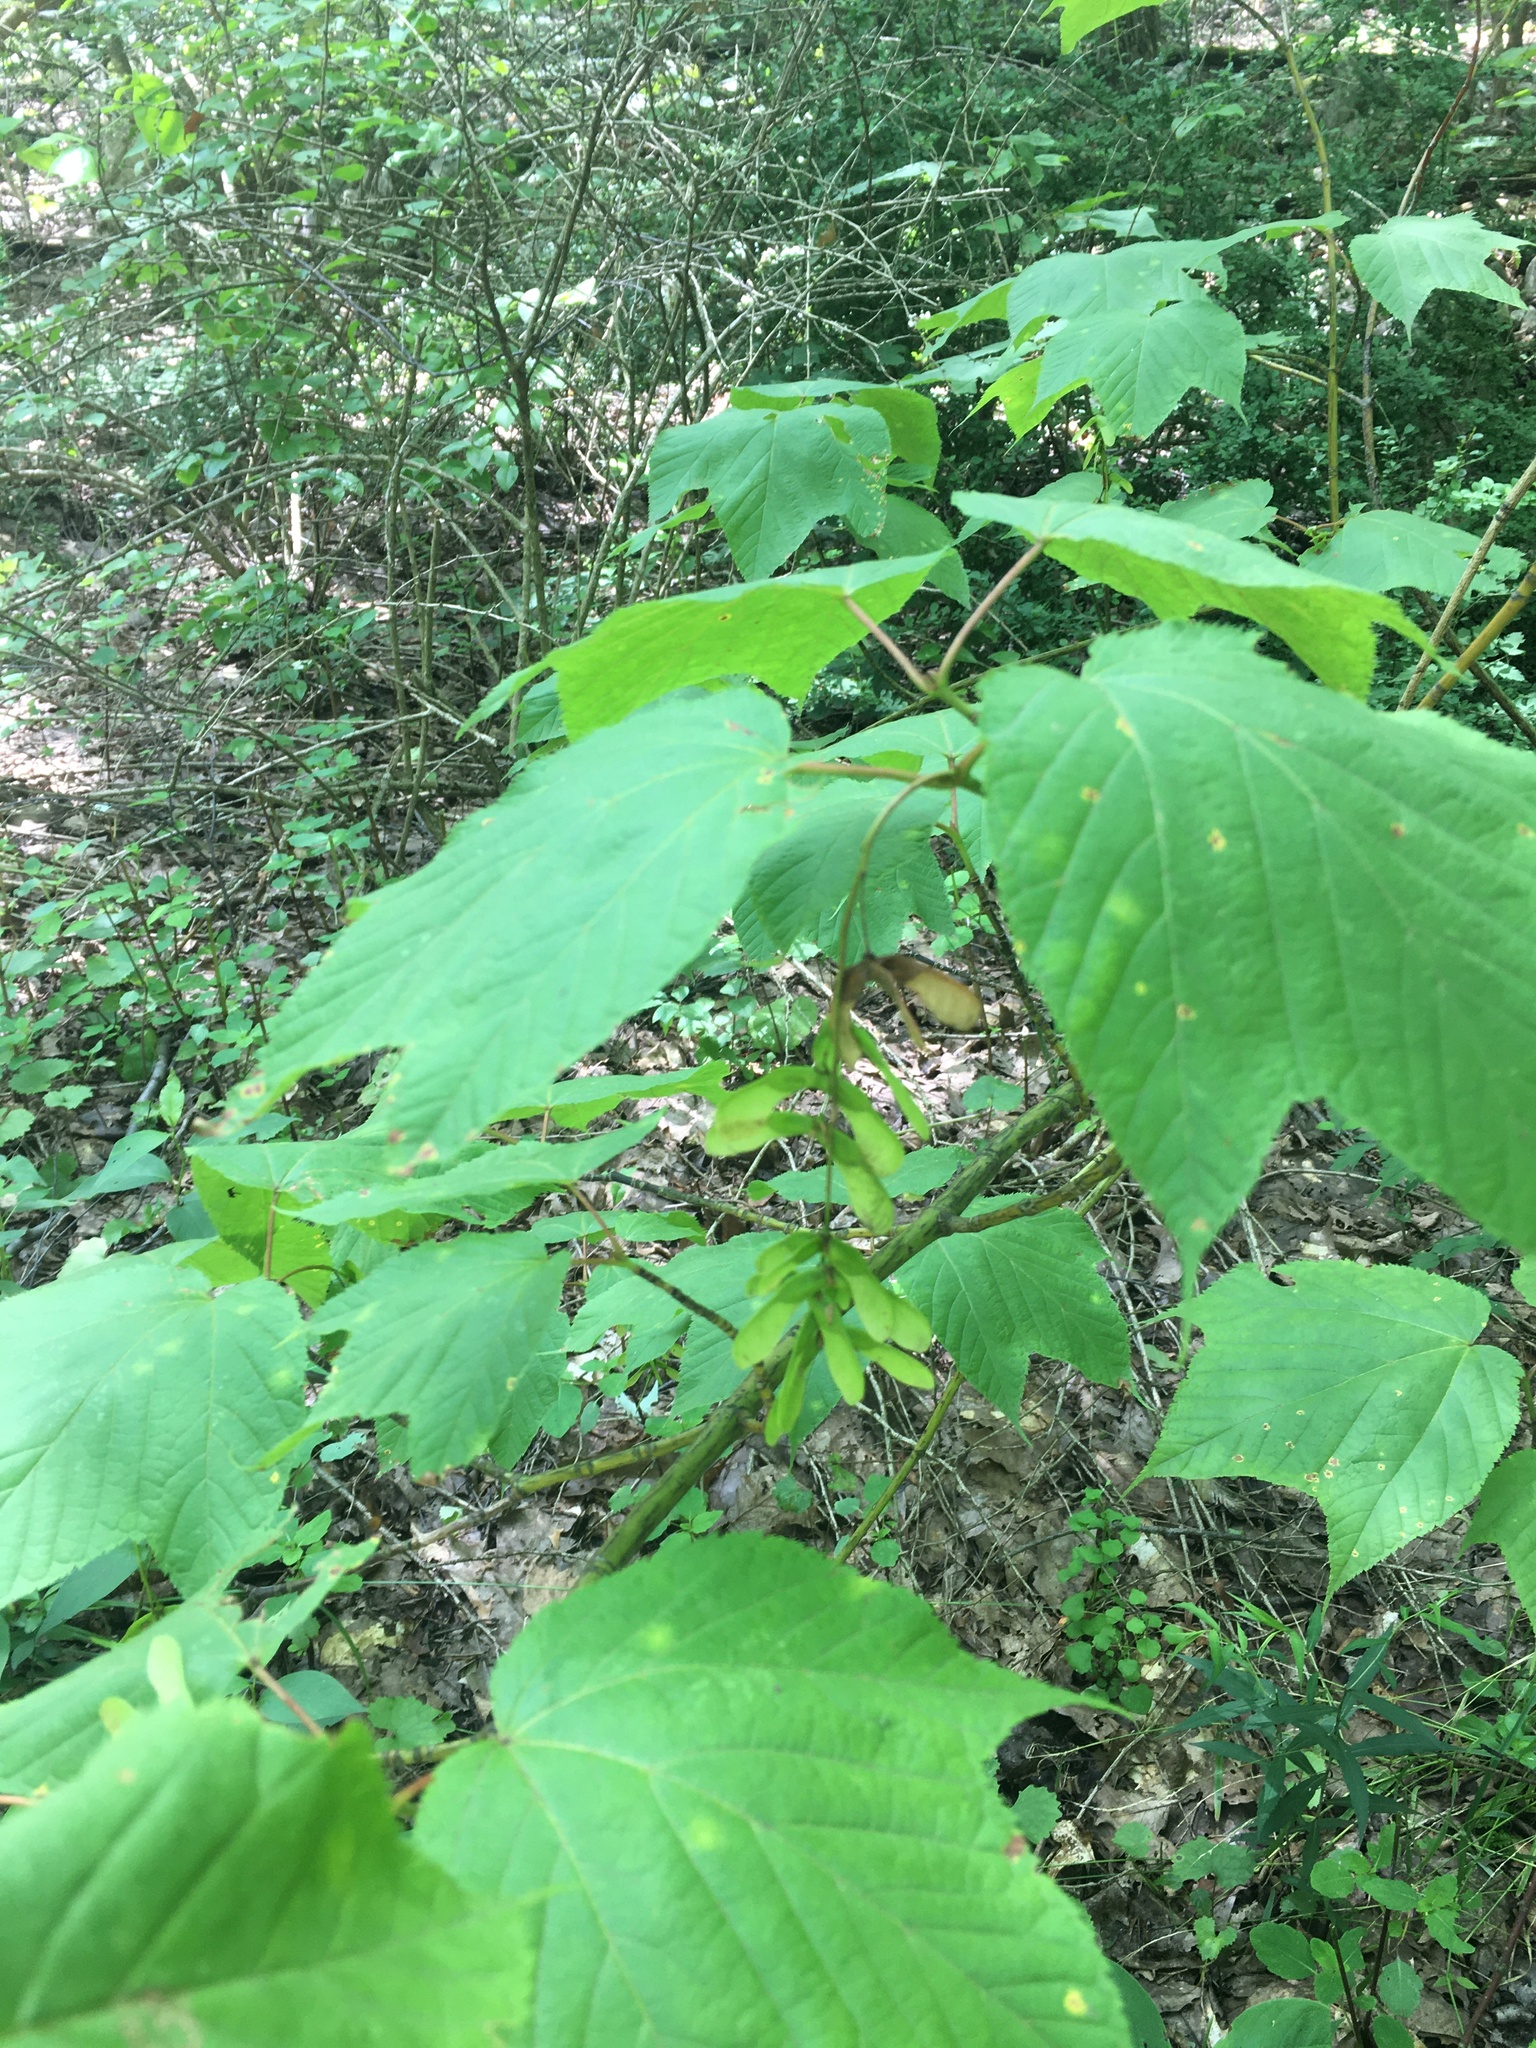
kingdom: Plantae
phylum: Tracheophyta
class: Magnoliopsida
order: Sapindales
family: Sapindaceae
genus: Acer
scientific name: Acer pensylvanicum
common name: Moosewood
